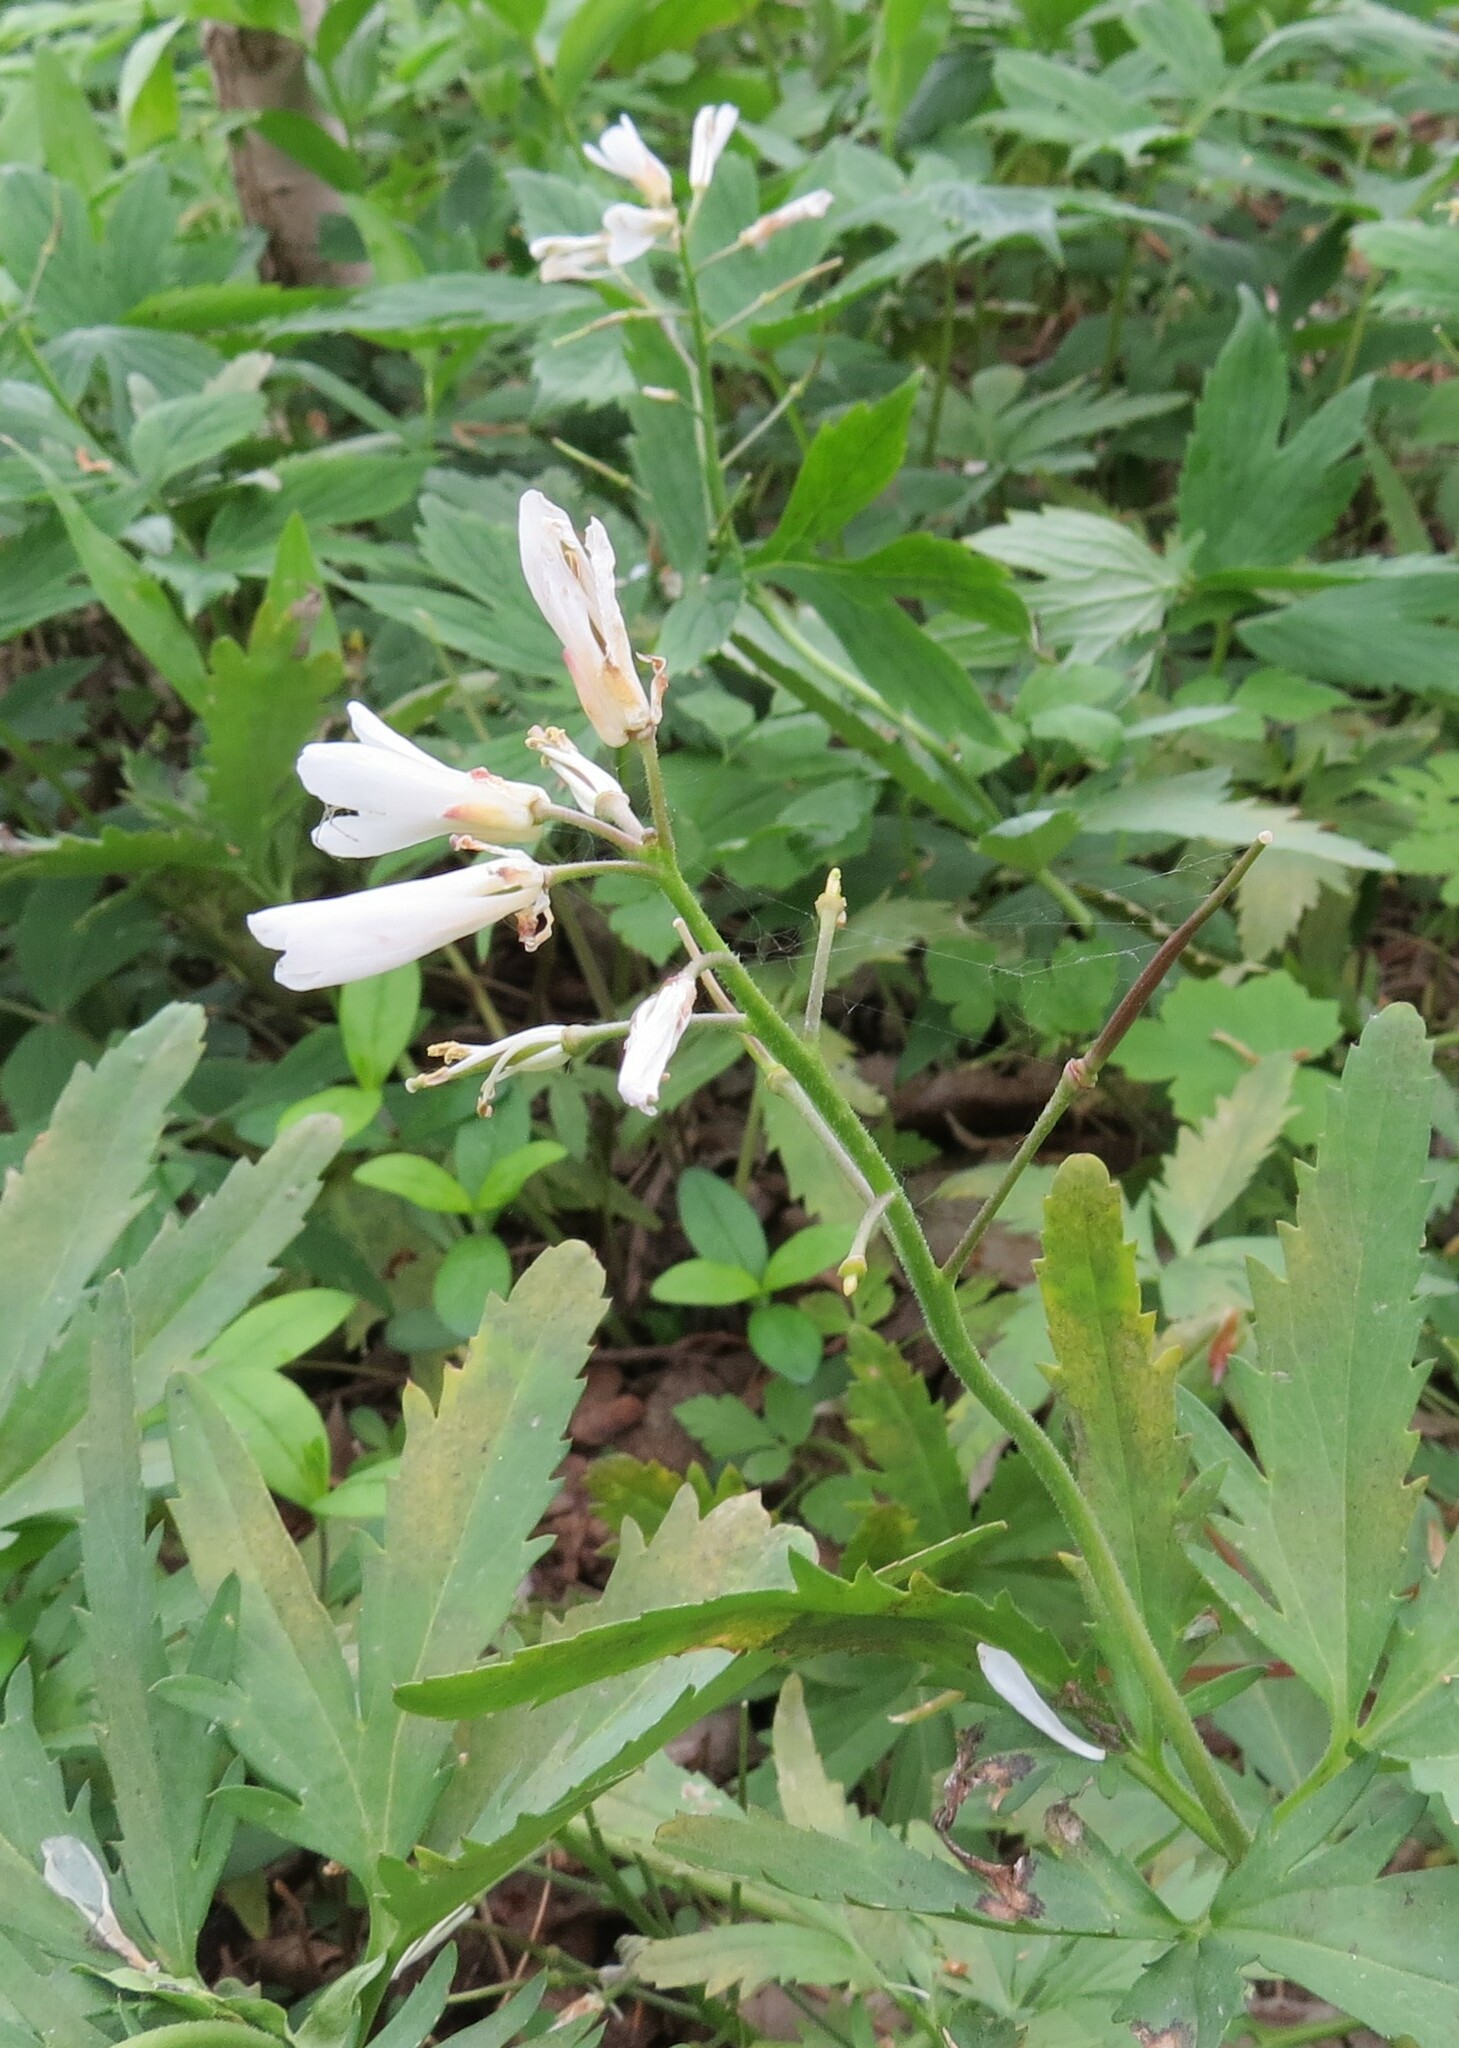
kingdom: Plantae
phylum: Tracheophyta
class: Magnoliopsida
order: Brassicales
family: Brassicaceae
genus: Cardamine
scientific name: Cardamine concatenata
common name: Cut-leaf toothcup
